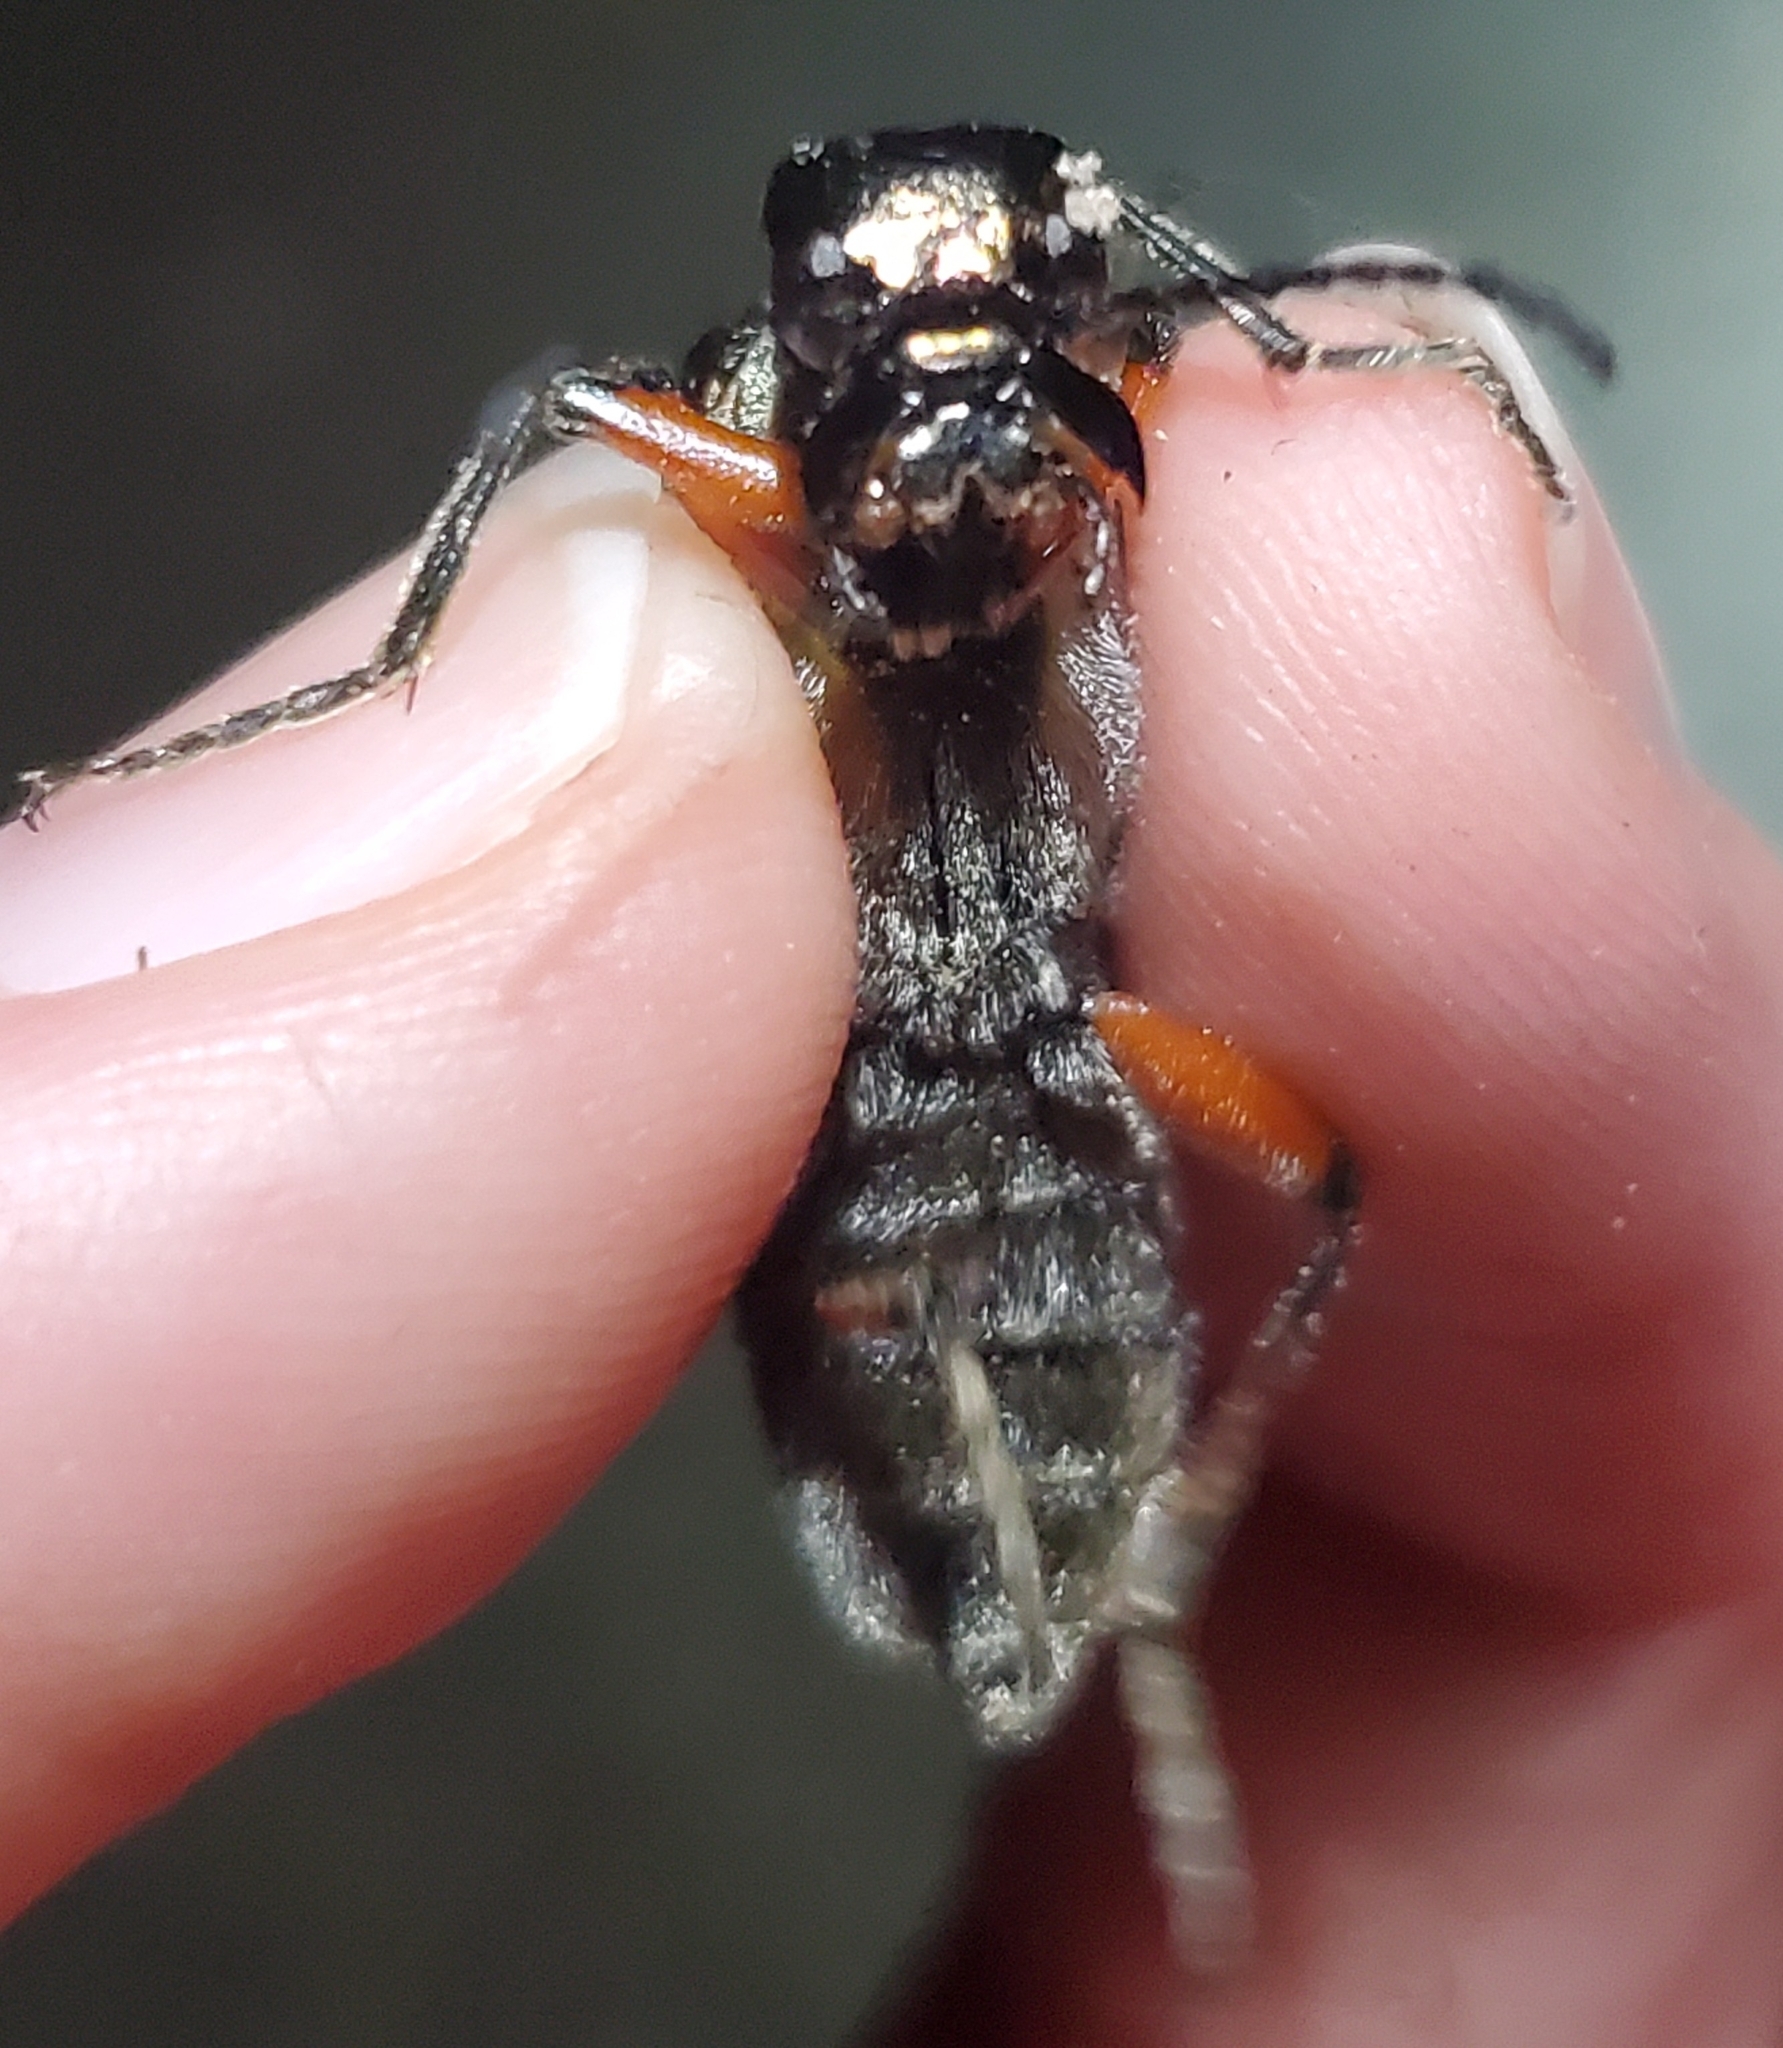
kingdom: Animalia
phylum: Arthropoda
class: Insecta
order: Coleoptera
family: Meloidae
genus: Lytta
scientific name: Lytta polita
